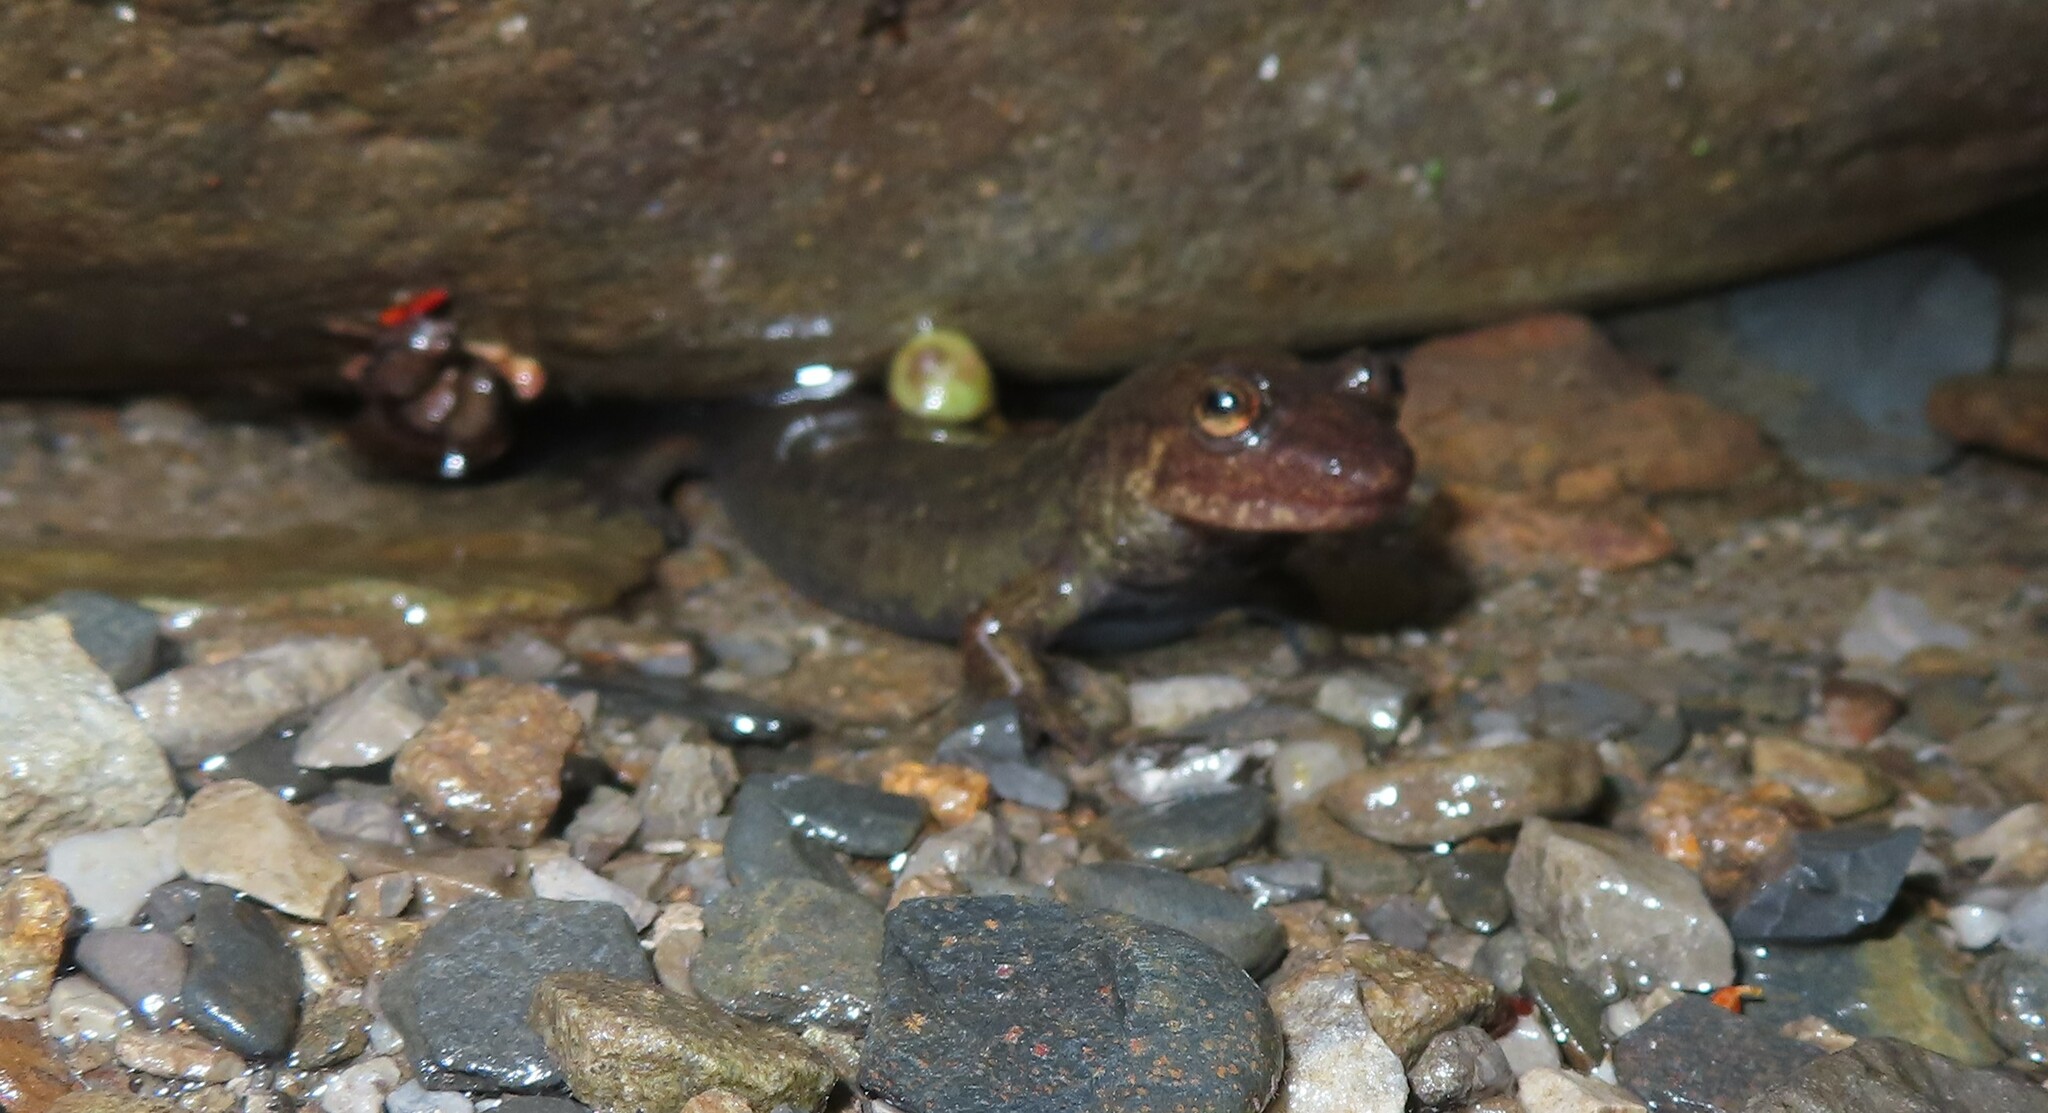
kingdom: Animalia
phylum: Chordata
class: Amphibia
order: Caudata
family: Plethodontidae
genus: Desmognathus
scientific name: Desmognathus
